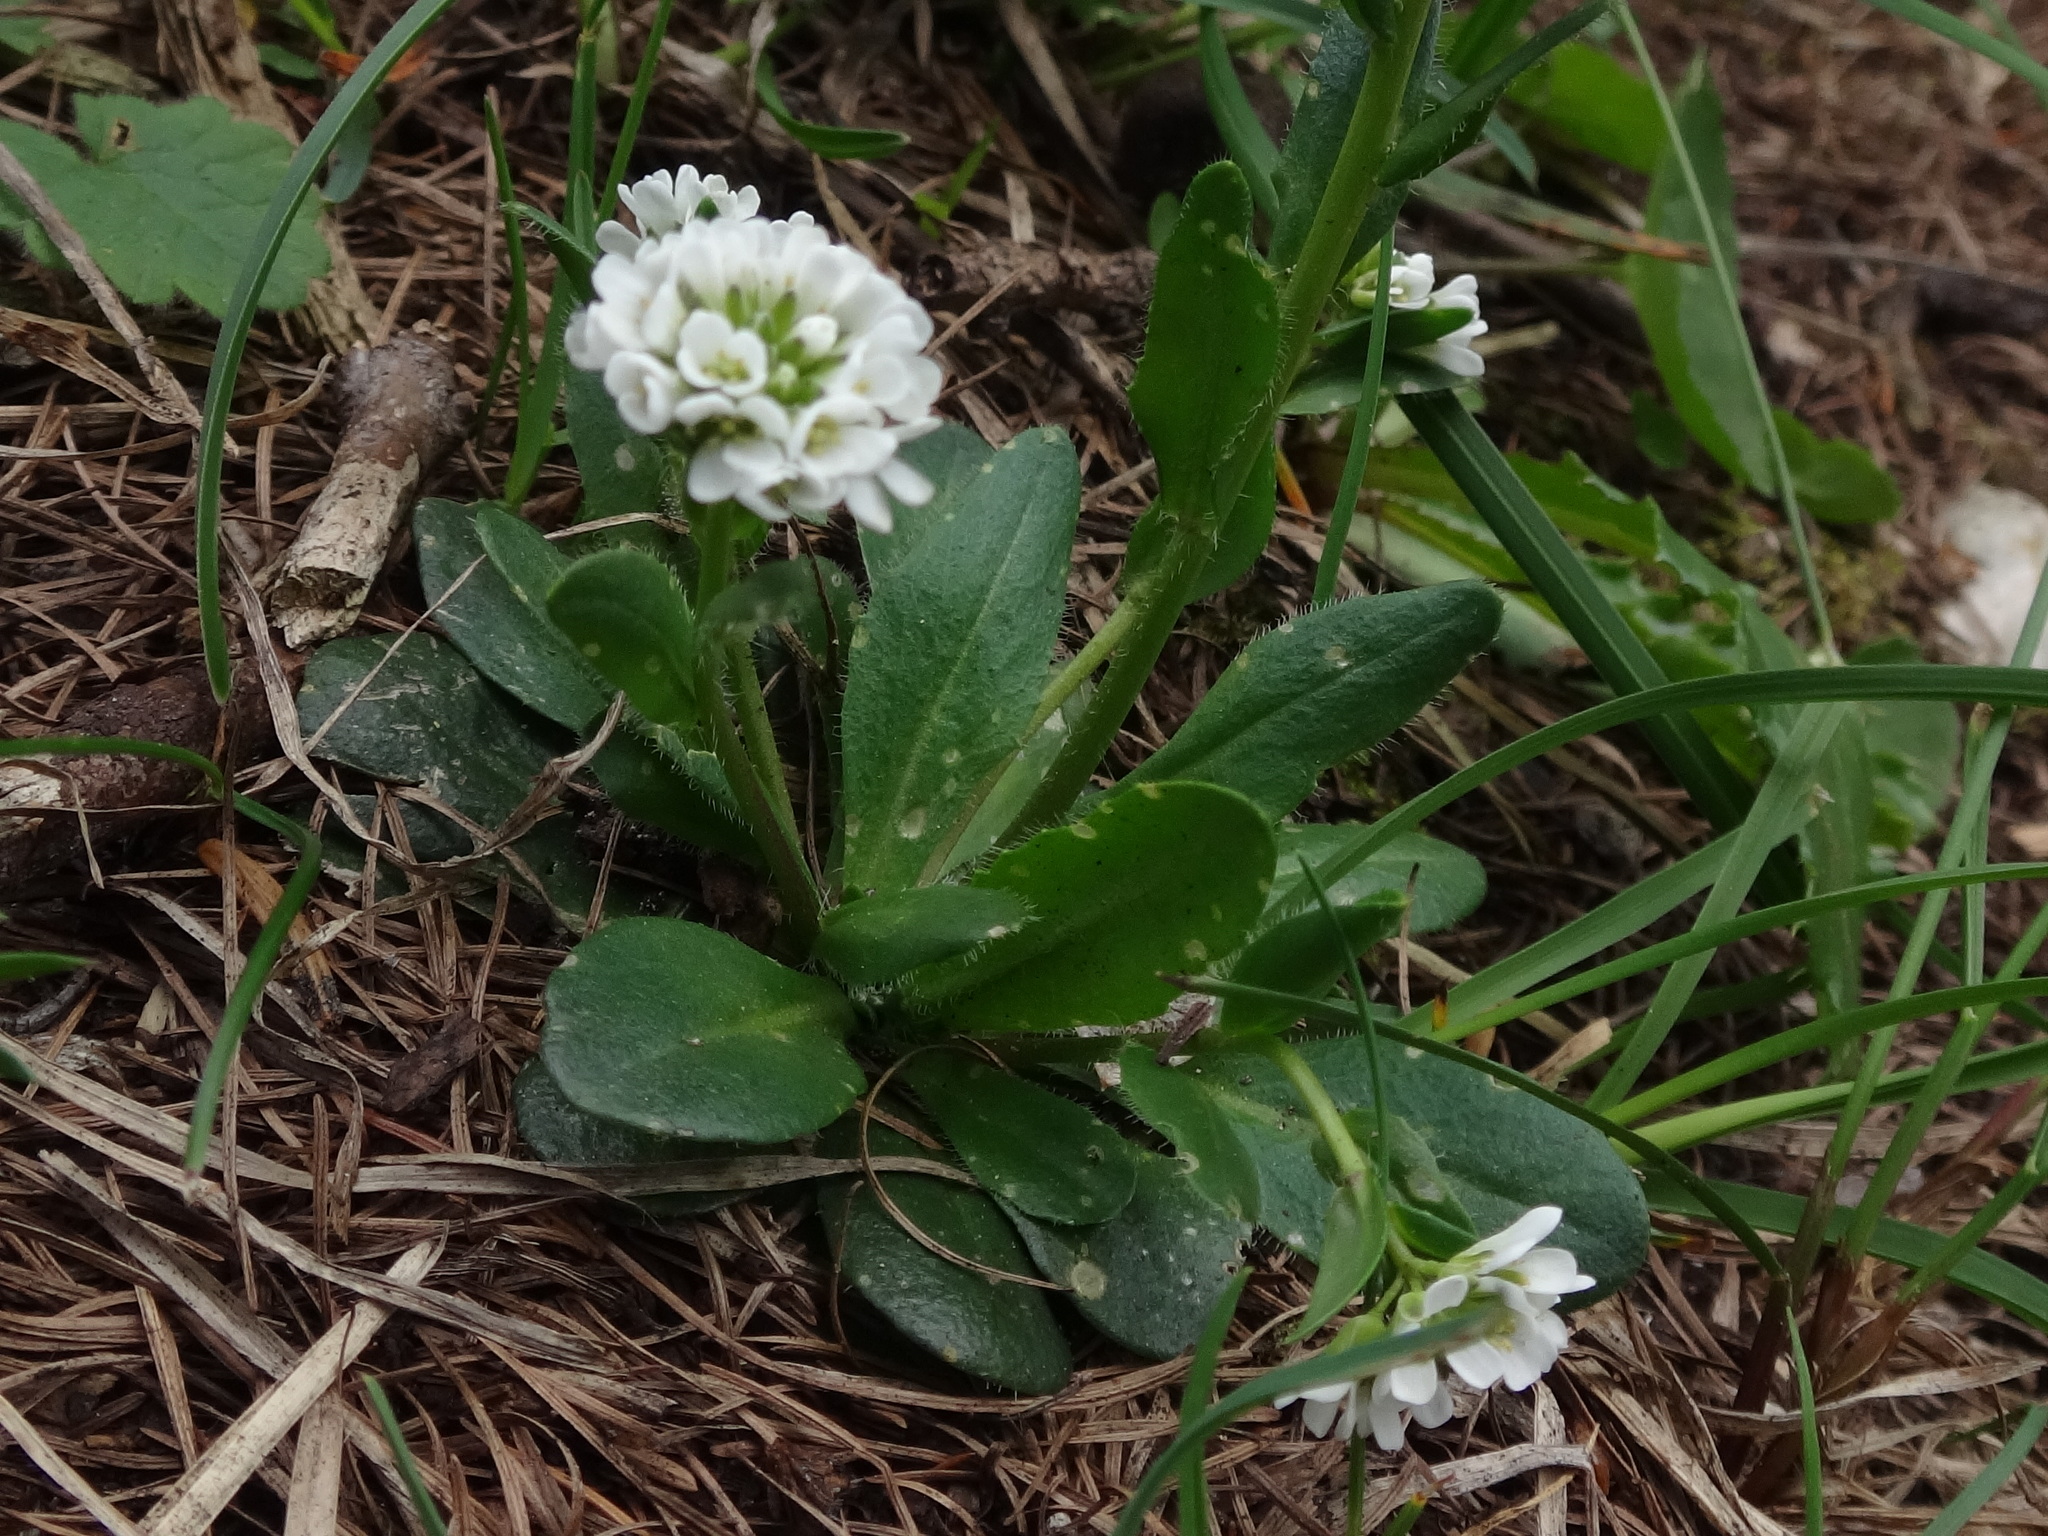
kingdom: Plantae
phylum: Tracheophyta
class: Magnoliopsida
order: Brassicales
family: Brassicaceae
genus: Arabis
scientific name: Arabis ciliata
